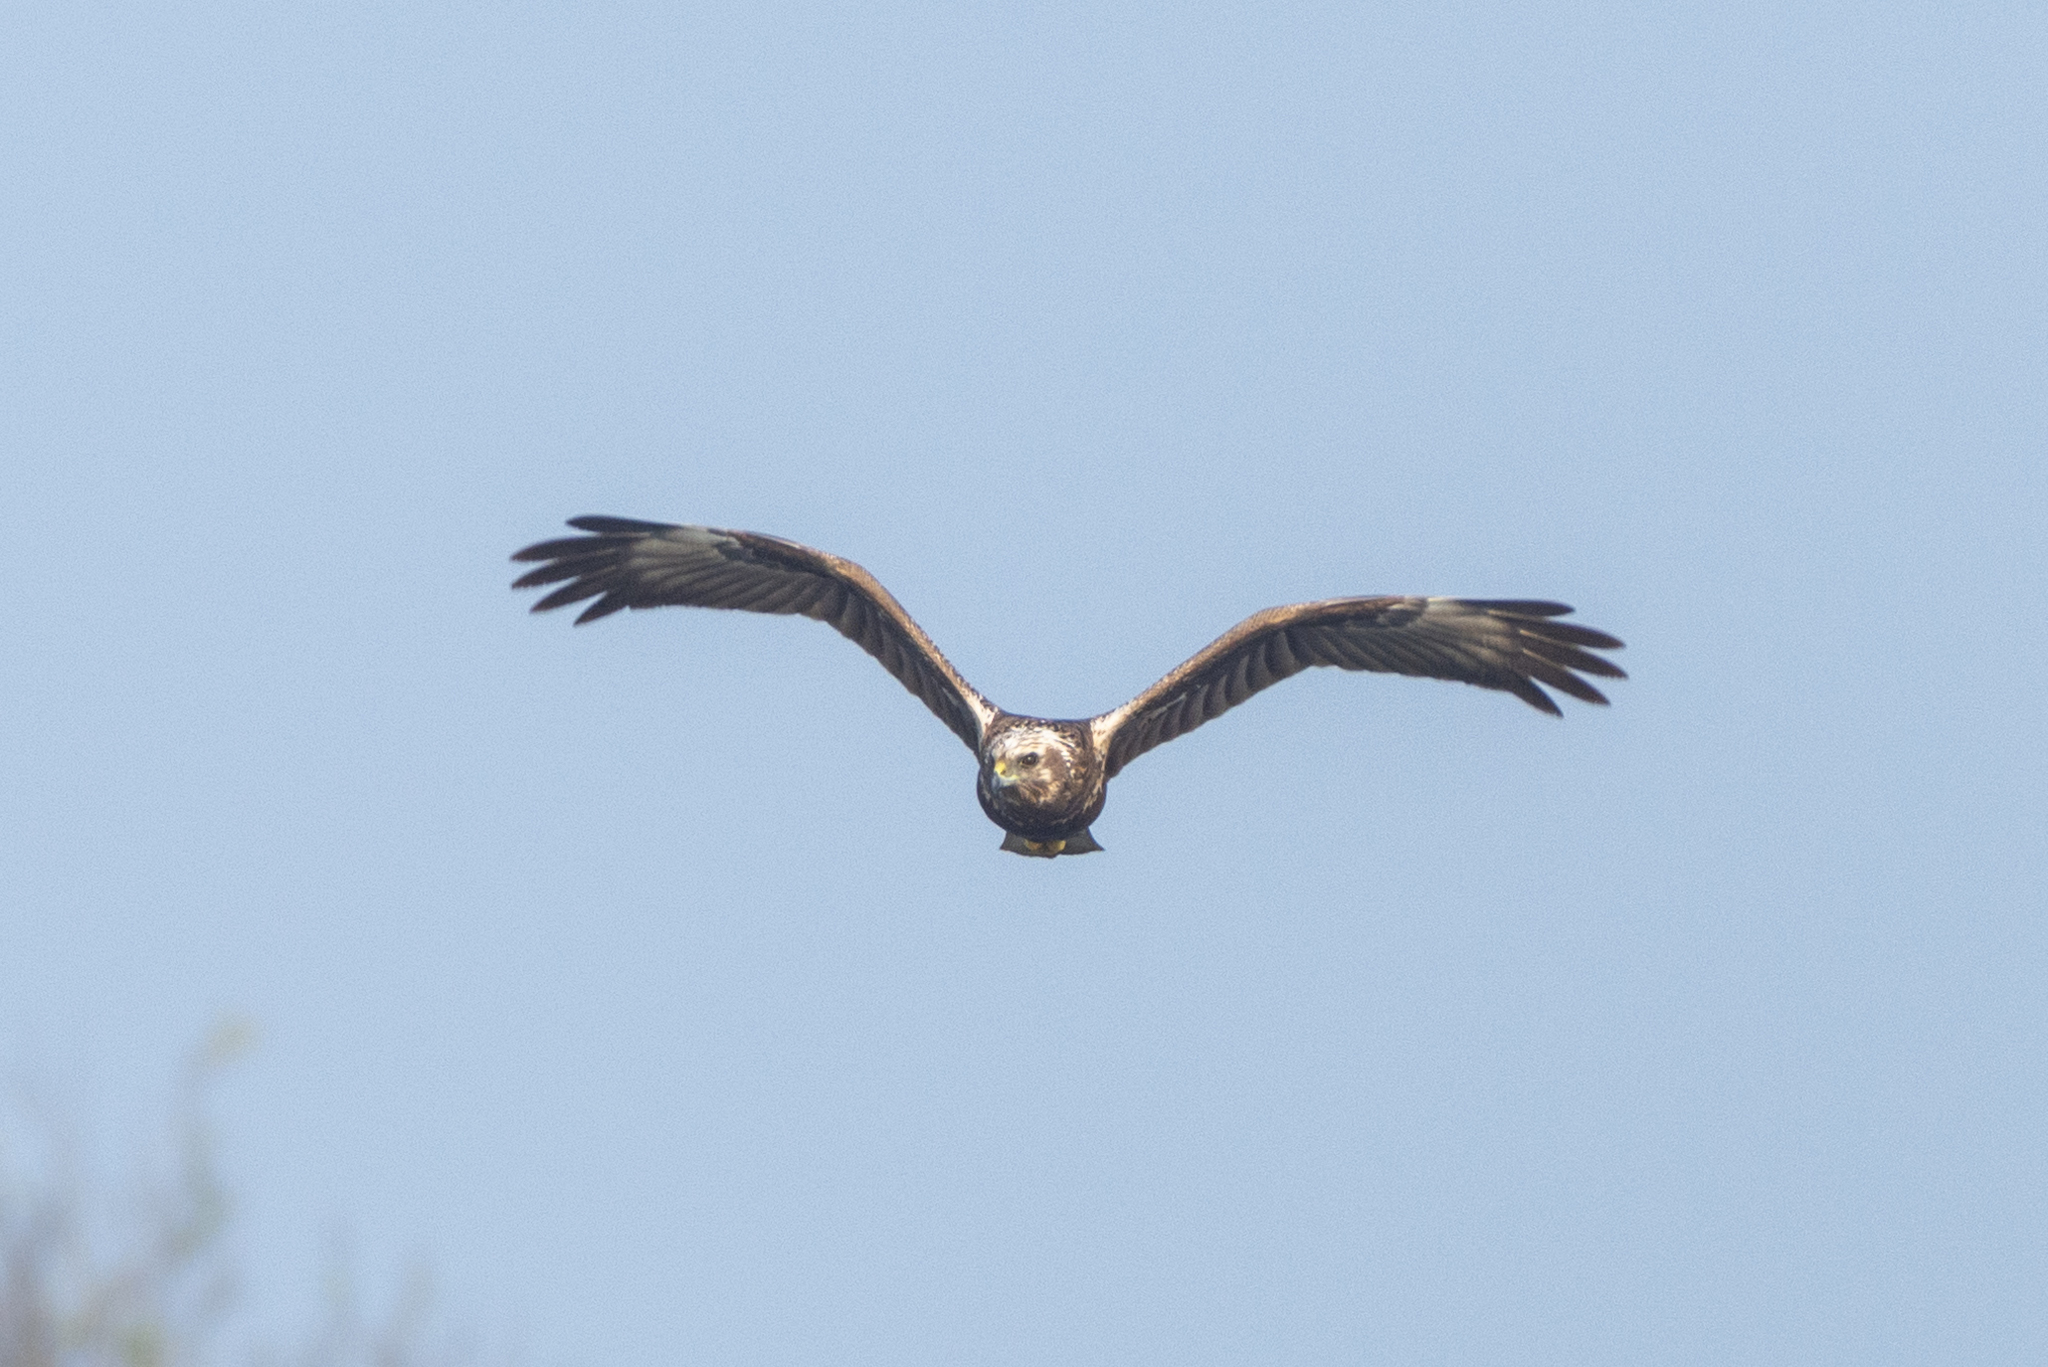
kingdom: Animalia
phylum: Chordata
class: Aves
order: Accipitriformes
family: Accipitridae
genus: Circus
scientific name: Circus spilonotus
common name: Eastern marsh-harrier
